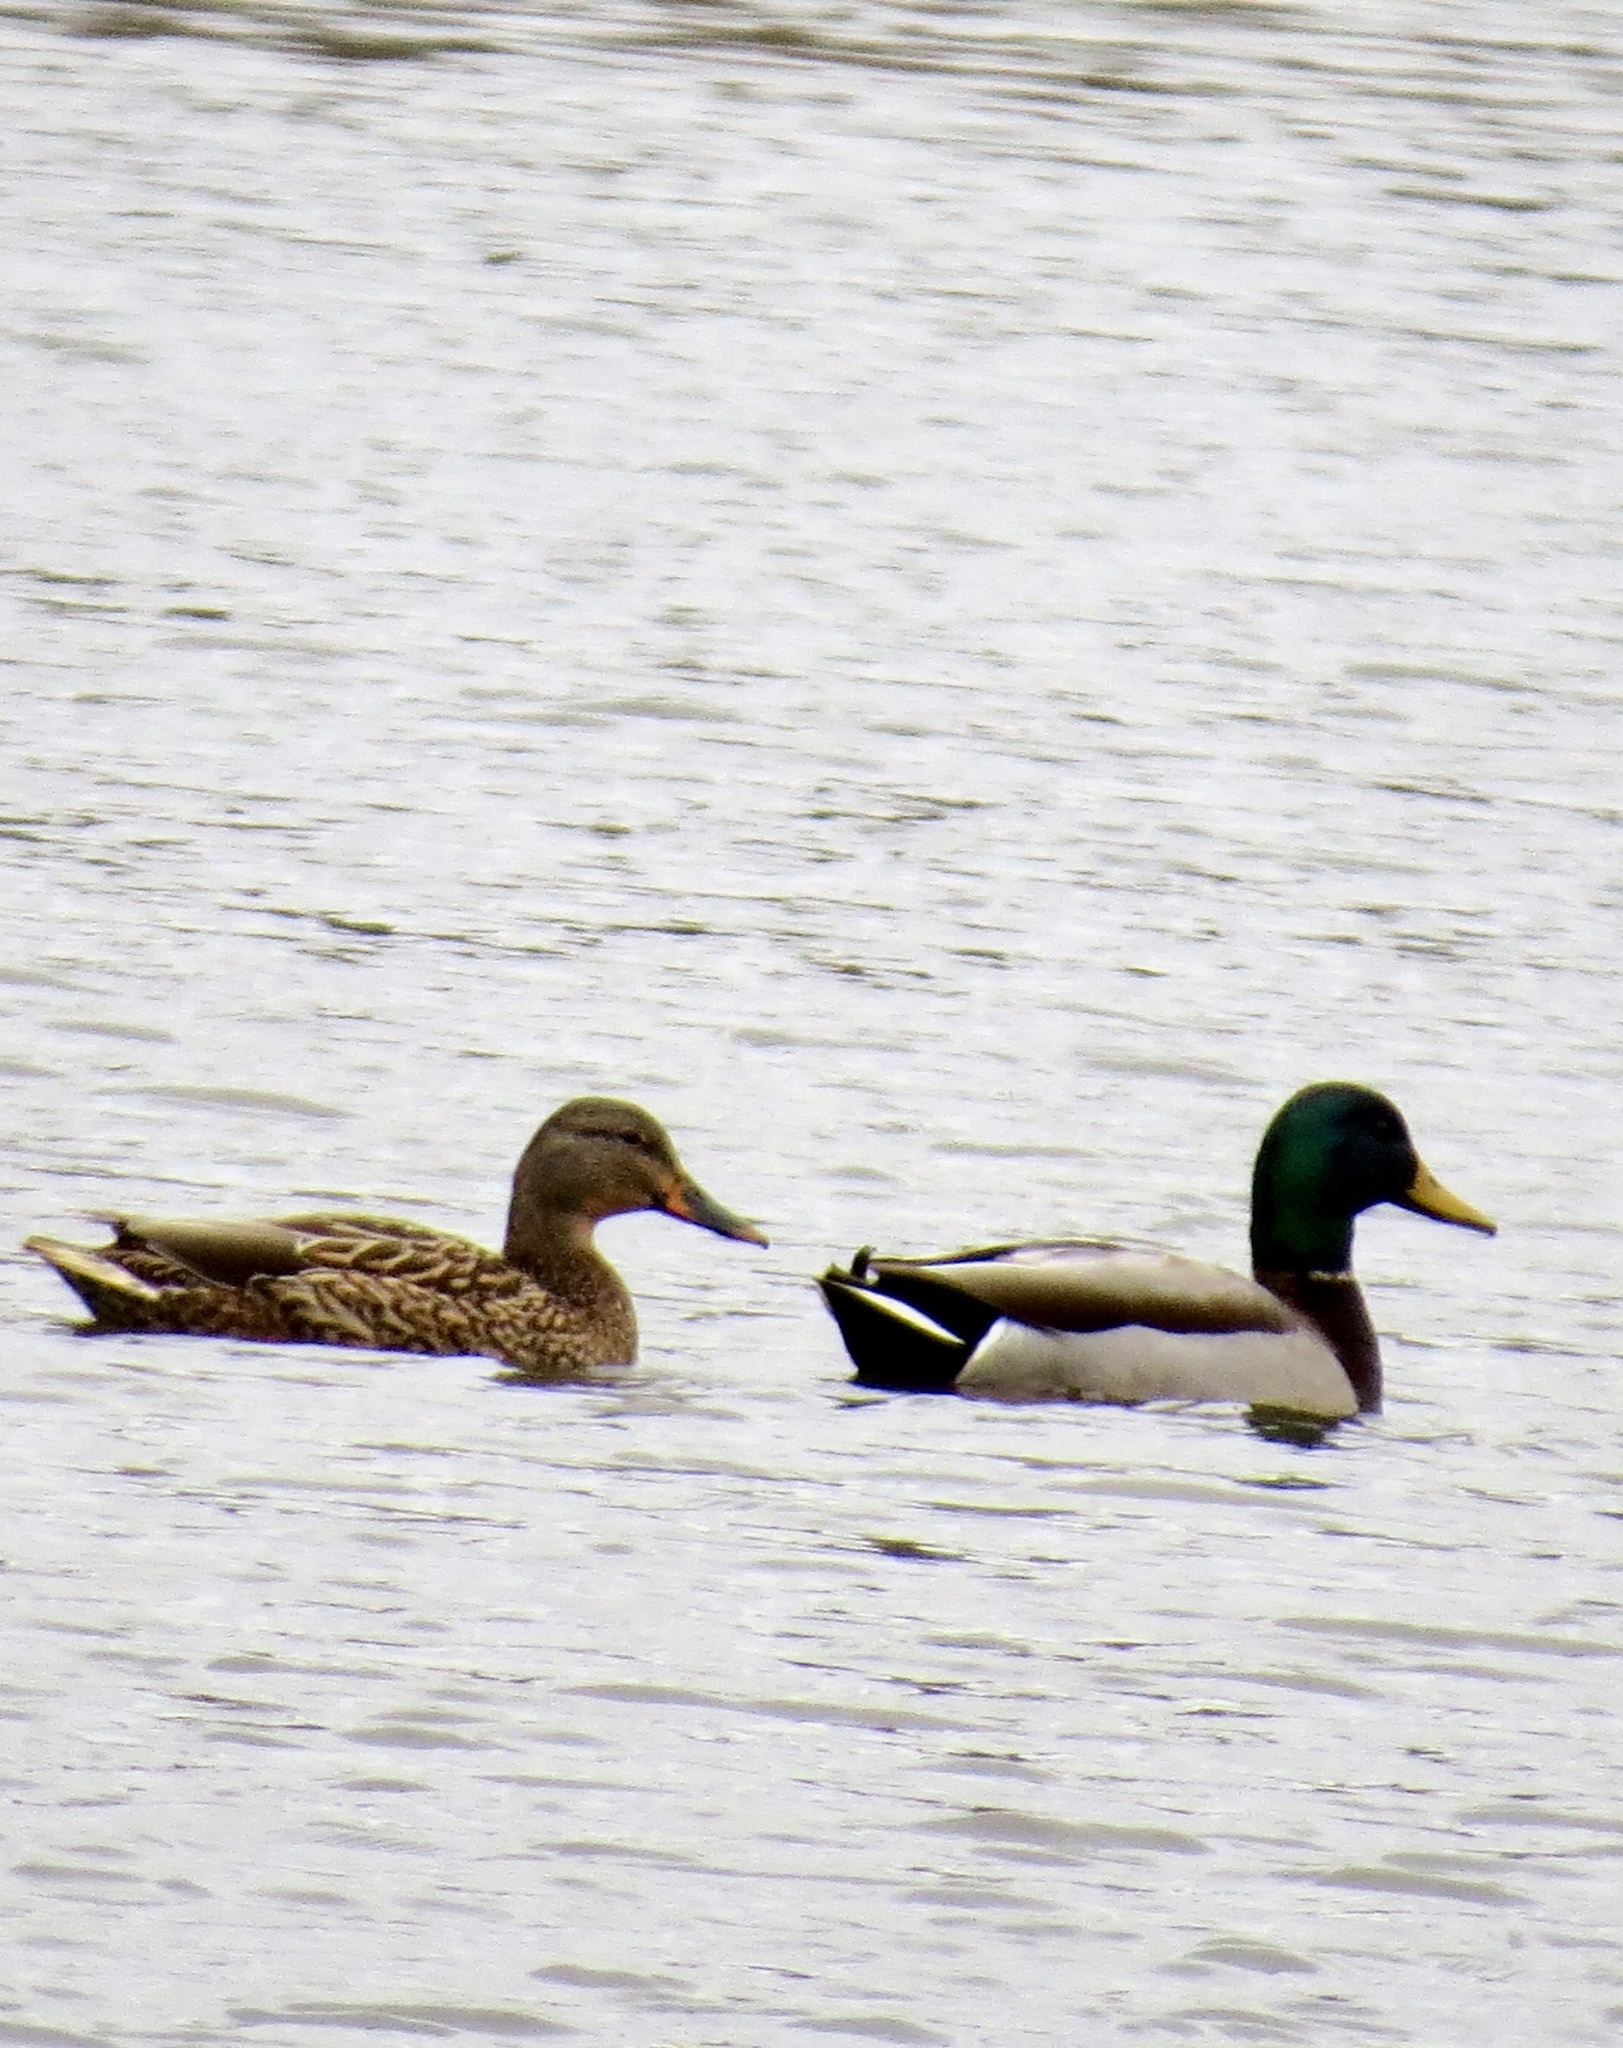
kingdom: Animalia
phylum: Chordata
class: Aves
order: Anseriformes
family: Anatidae
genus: Anas
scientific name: Anas platyrhynchos
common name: Mallard
